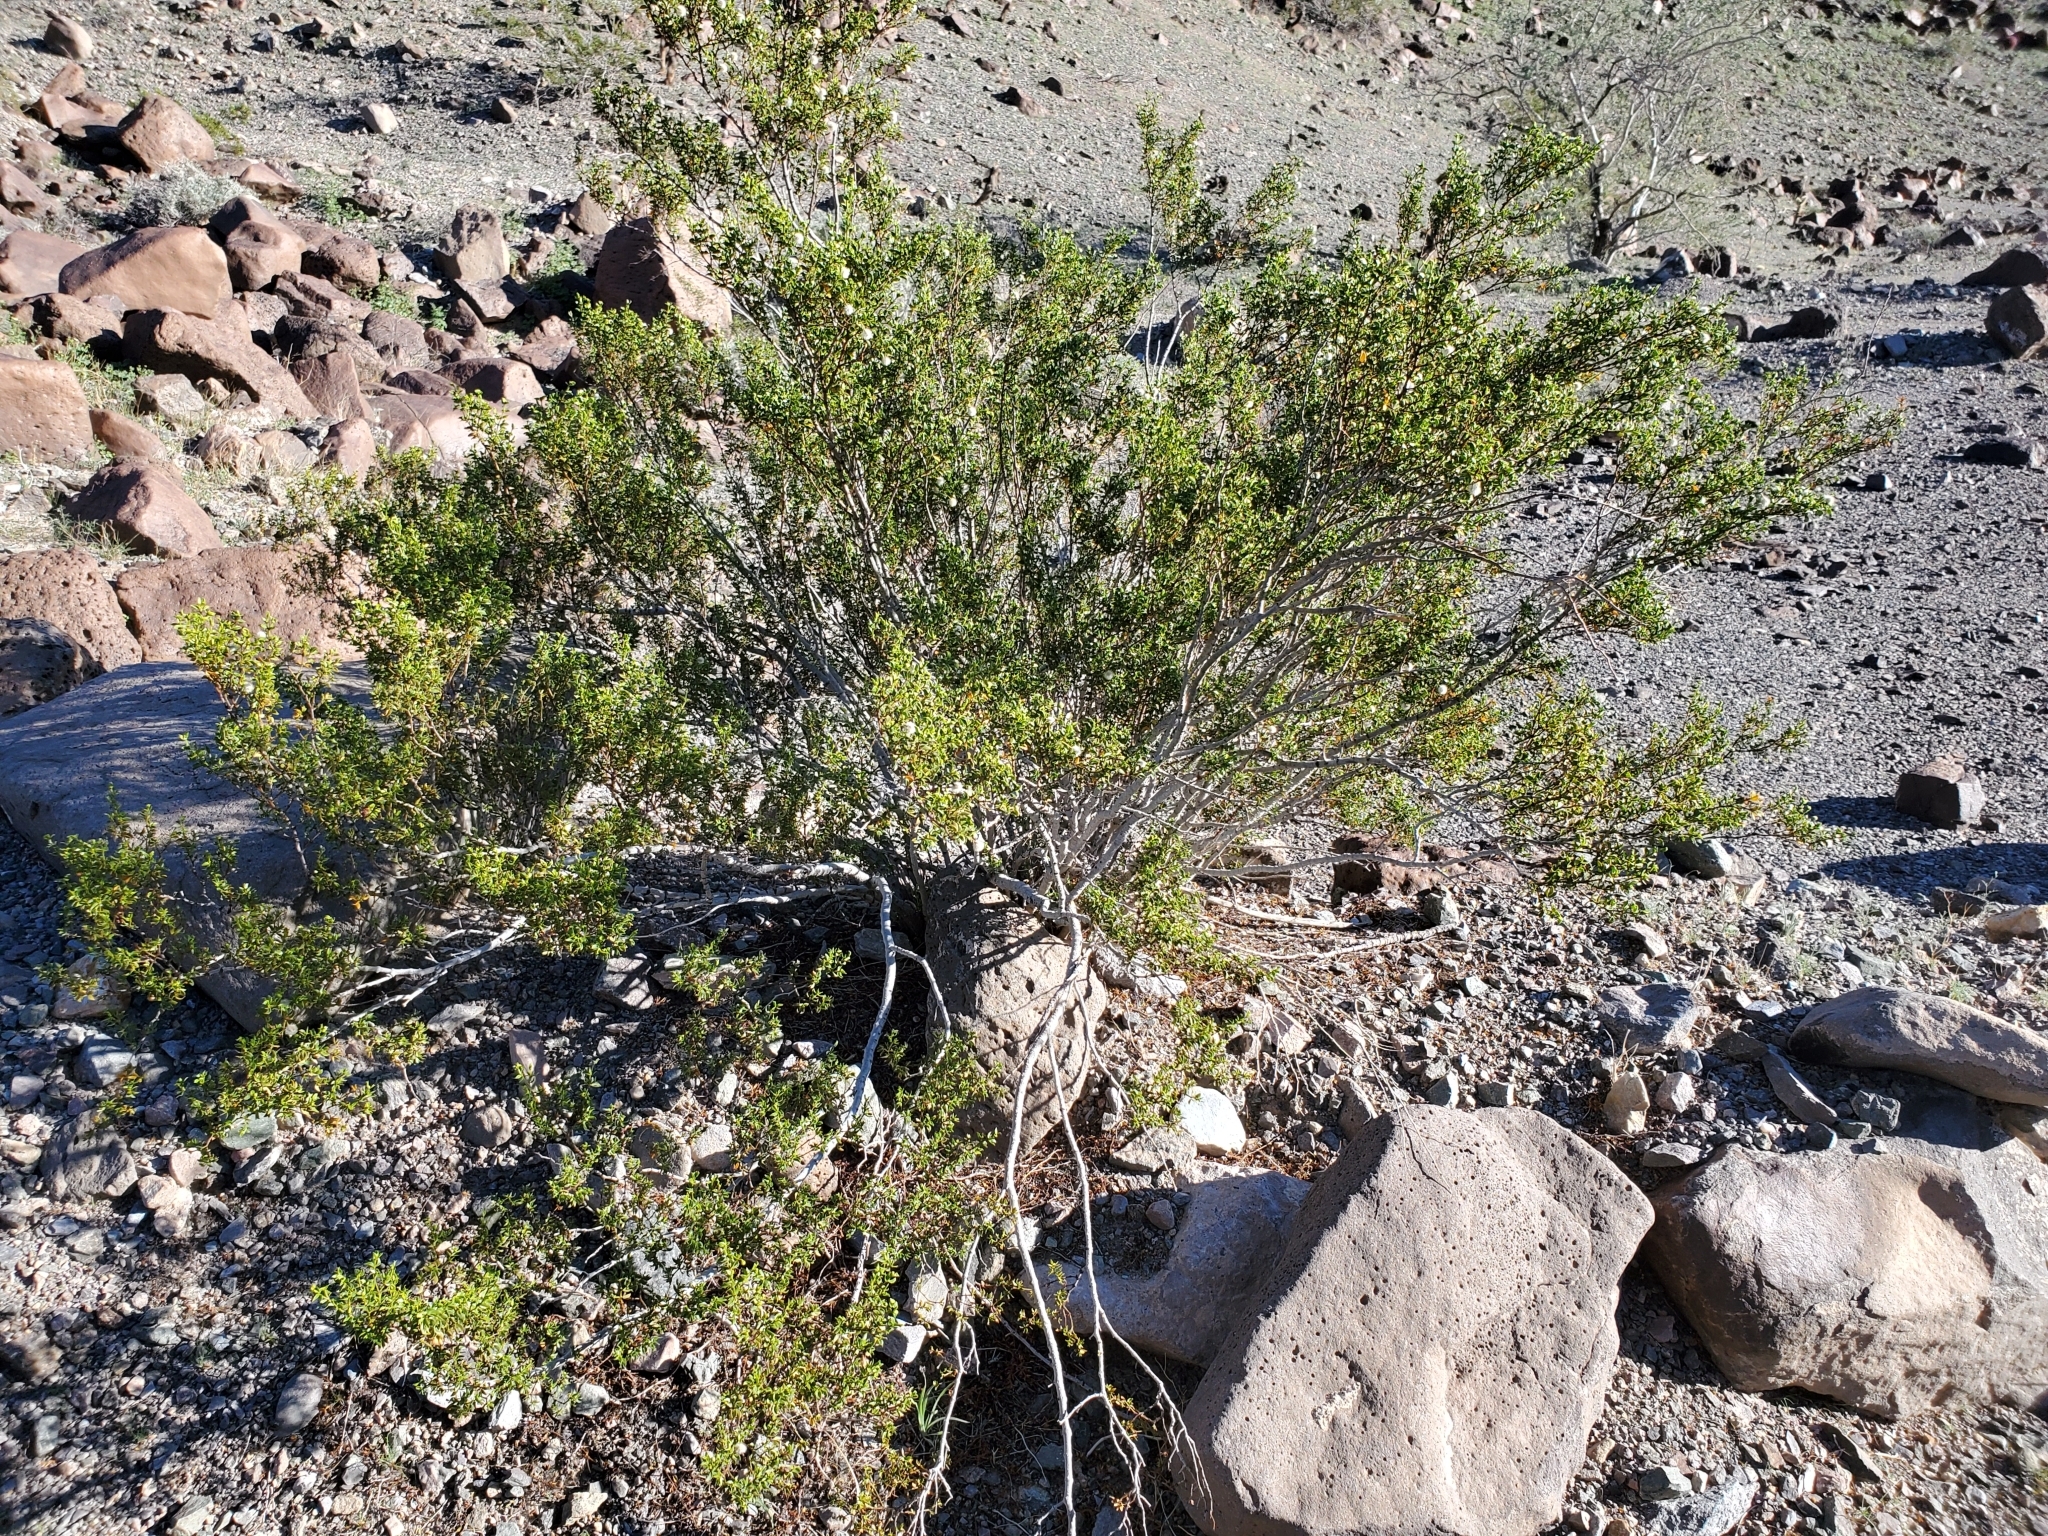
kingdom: Plantae
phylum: Tracheophyta
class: Magnoliopsida
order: Zygophyllales
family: Zygophyllaceae
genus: Larrea
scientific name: Larrea tridentata
